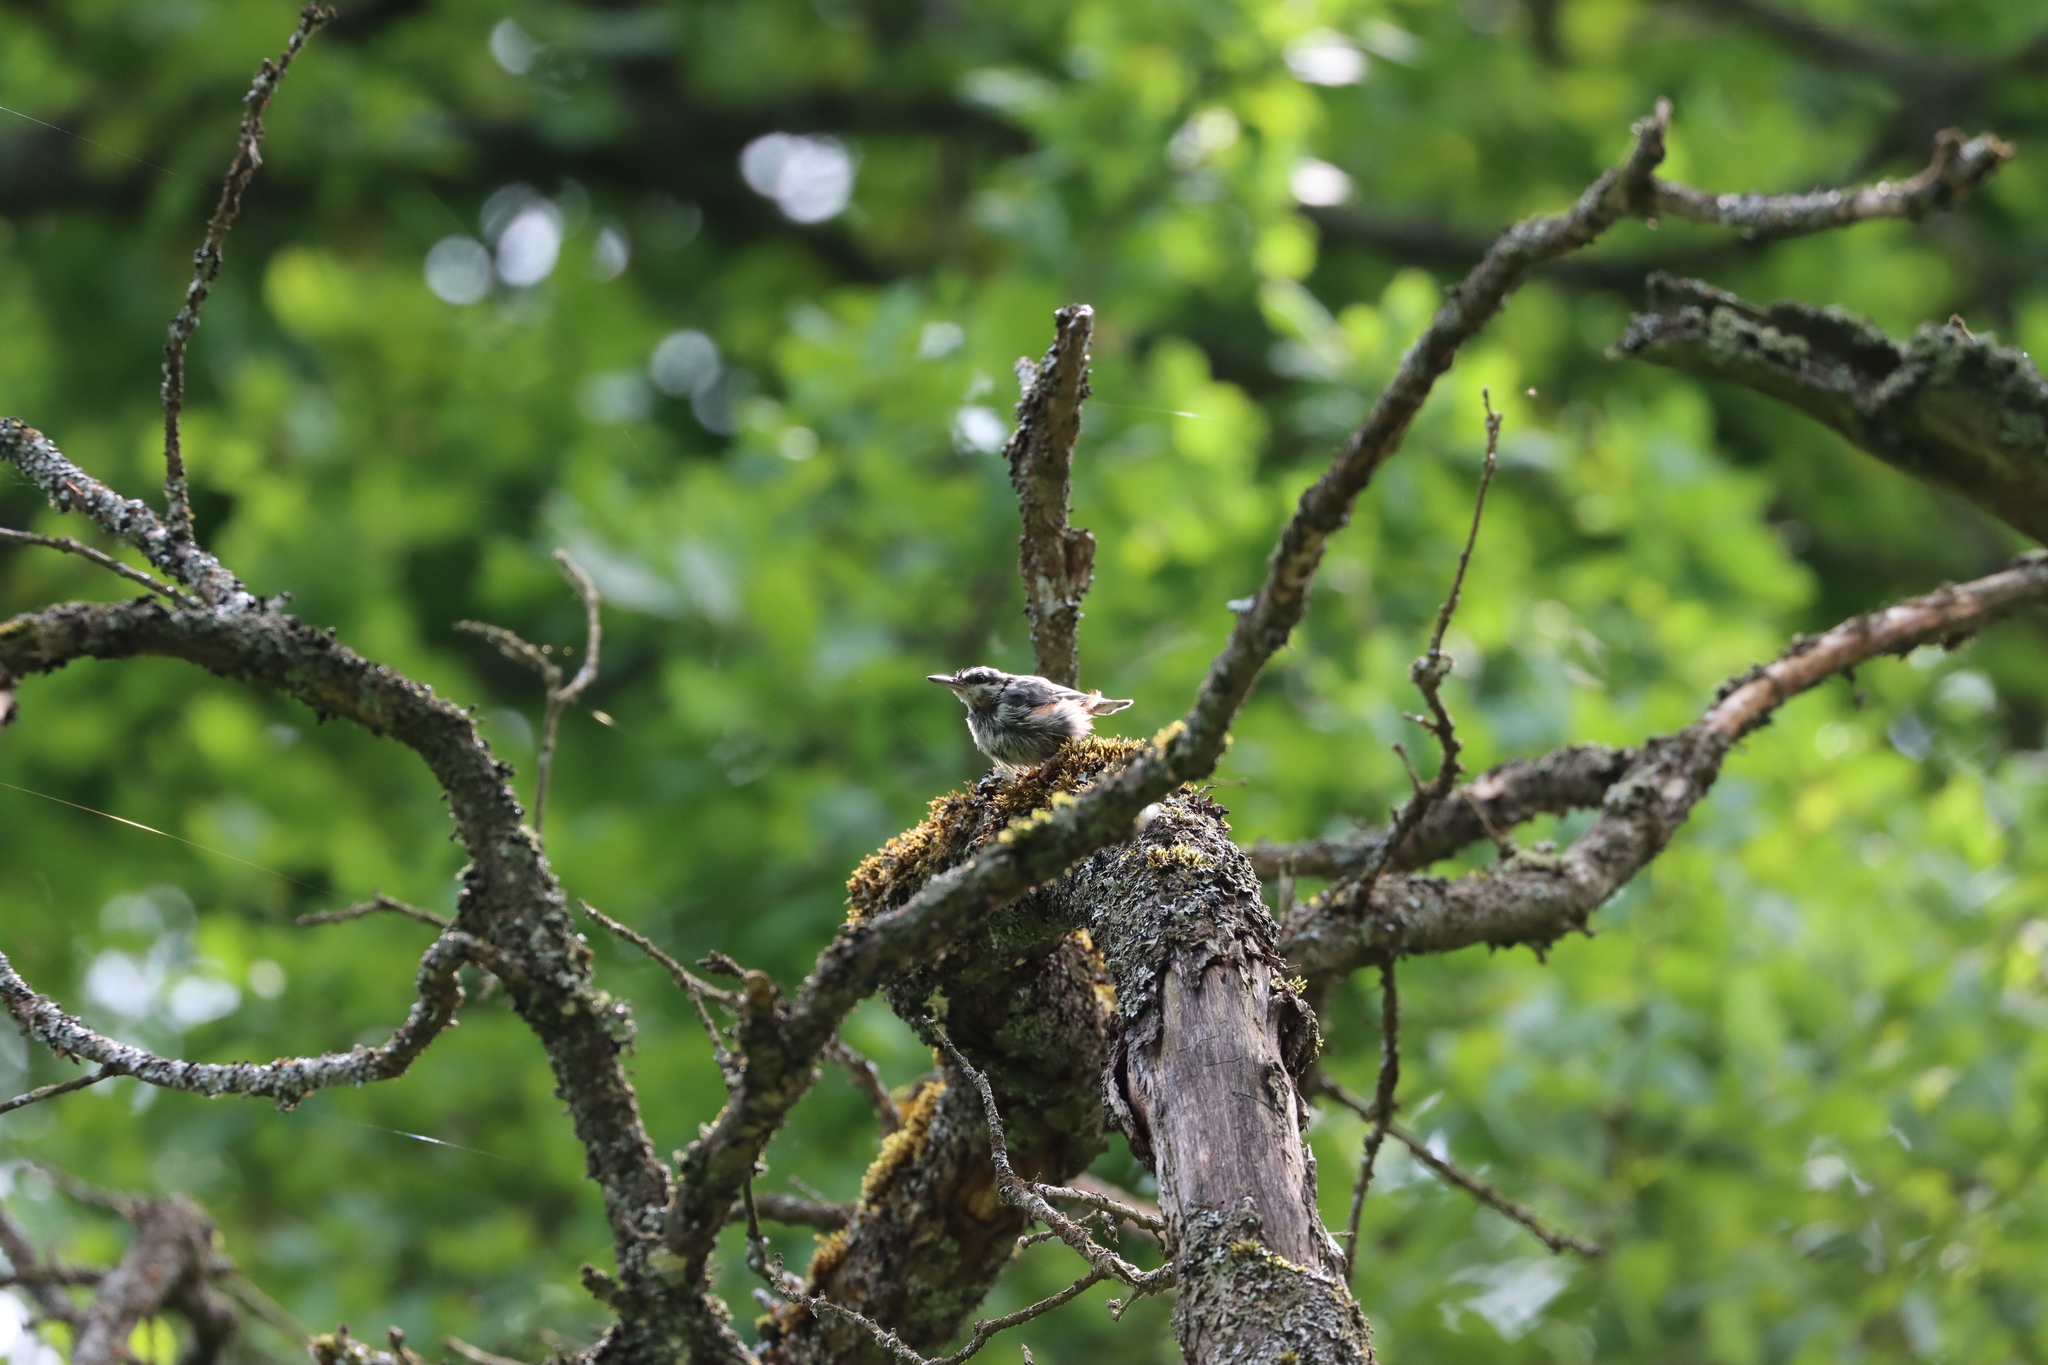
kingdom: Animalia
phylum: Chordata
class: Aves
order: Passeriformes
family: Sittidae
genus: Sitta
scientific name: Sitta europaea
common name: Eurasian nuthatch
